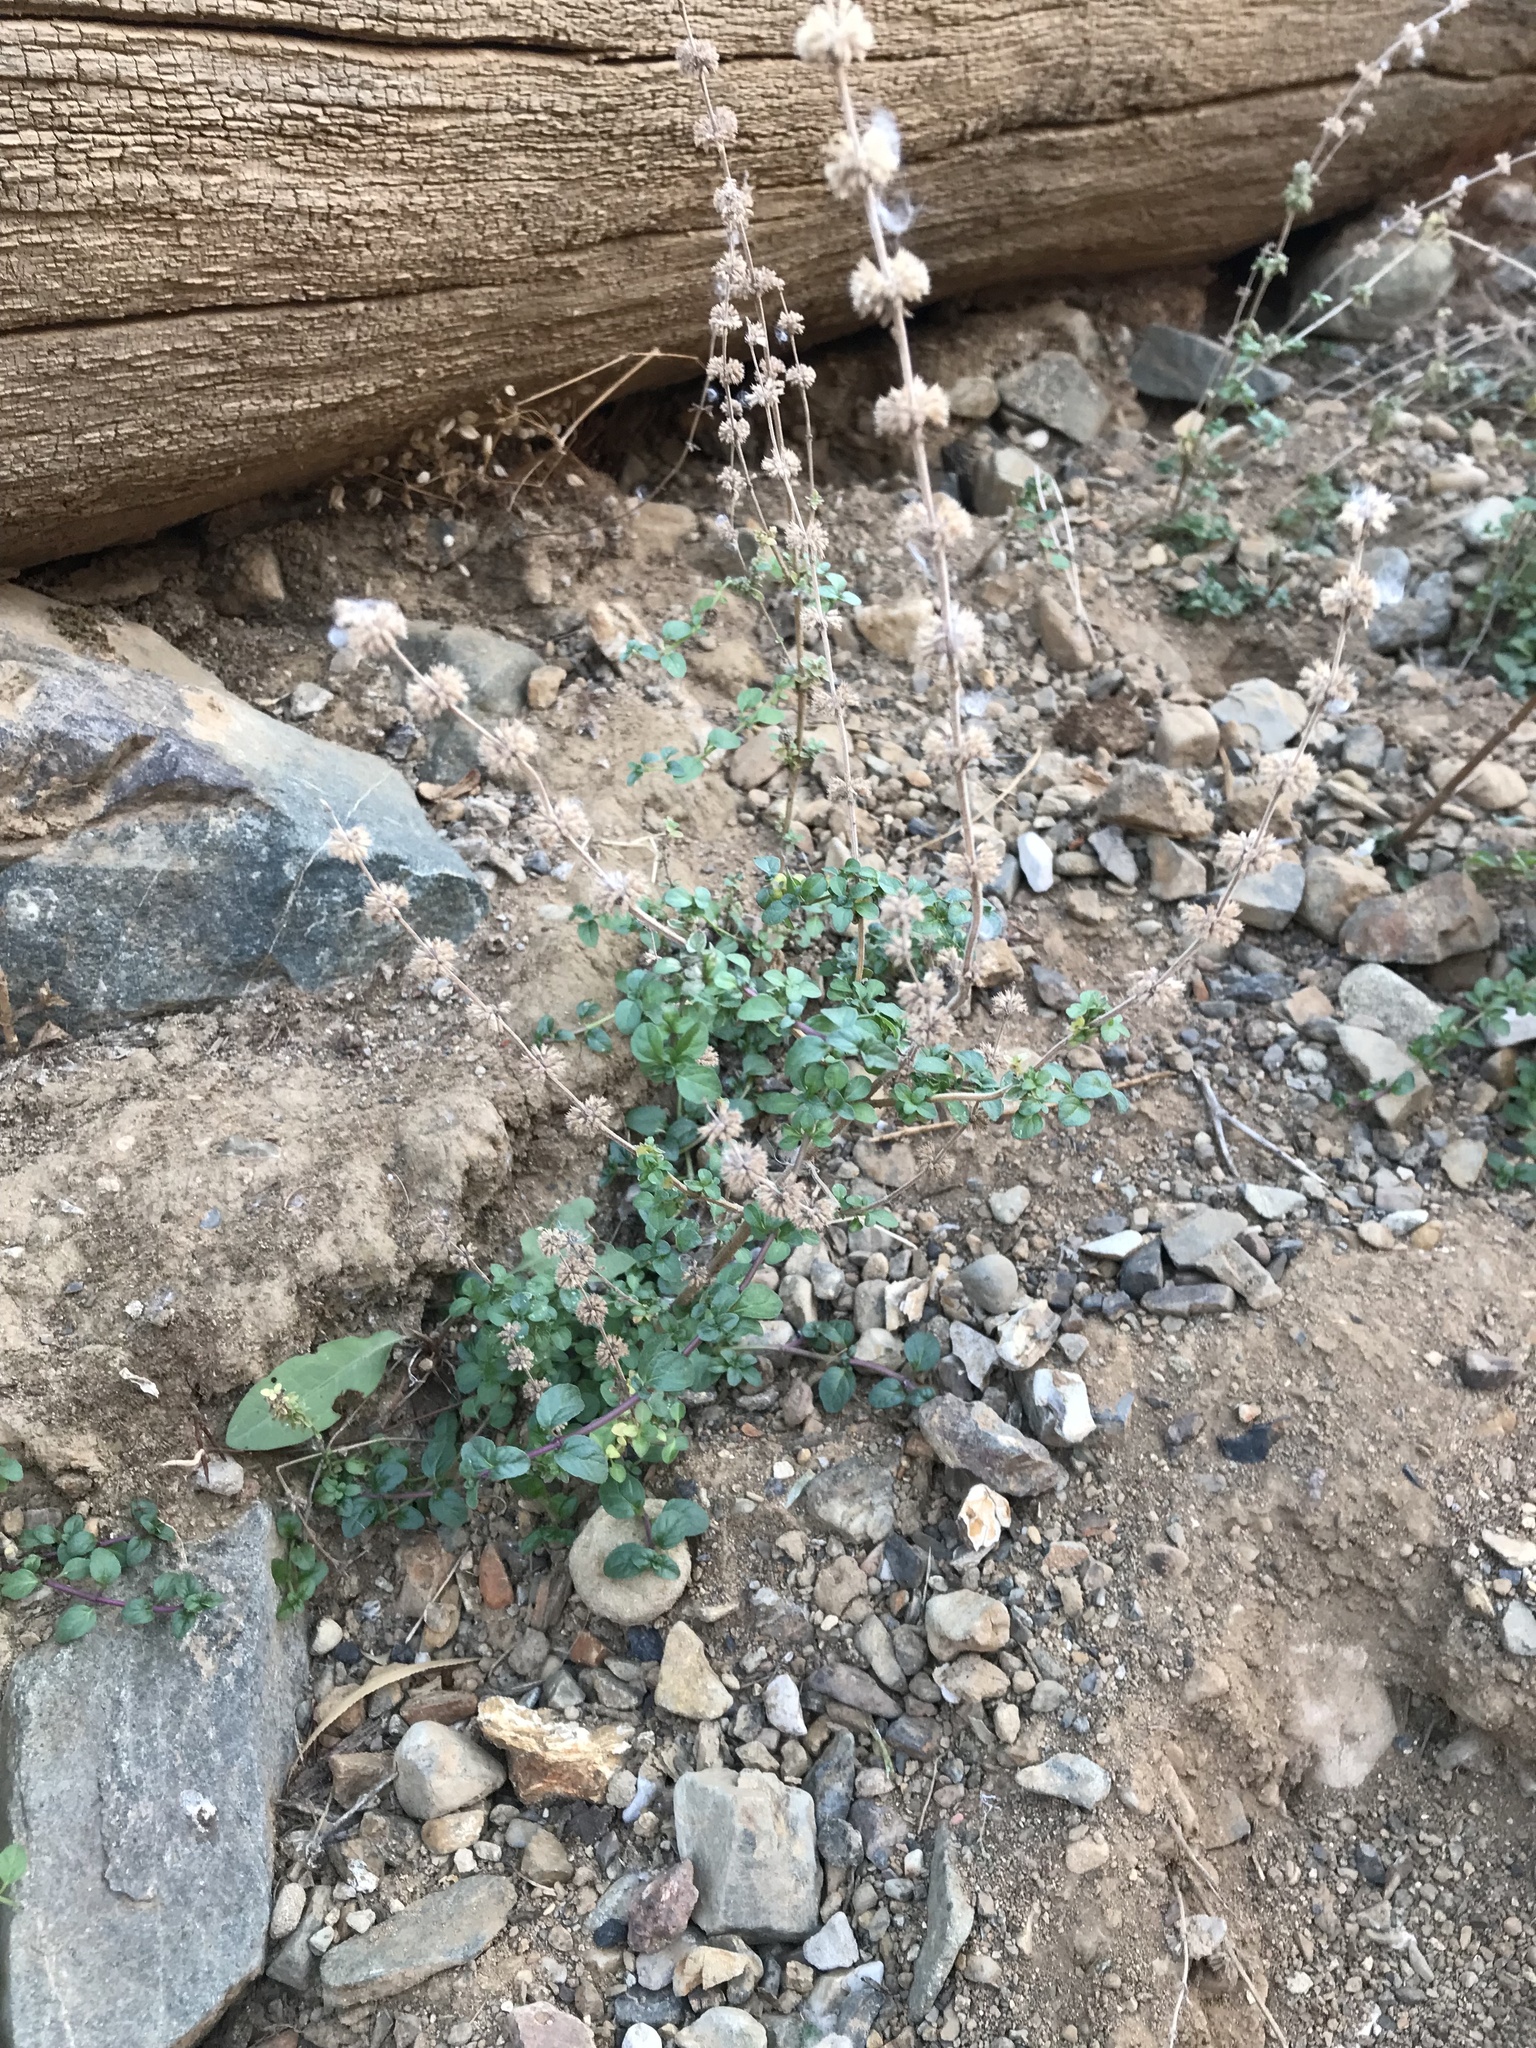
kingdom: Plantae
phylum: Tracheophyta
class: Magnoliopsida
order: Lamiales
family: Lamiaceae
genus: Mentha
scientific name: Mentha pulegium
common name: Pennyroyal
